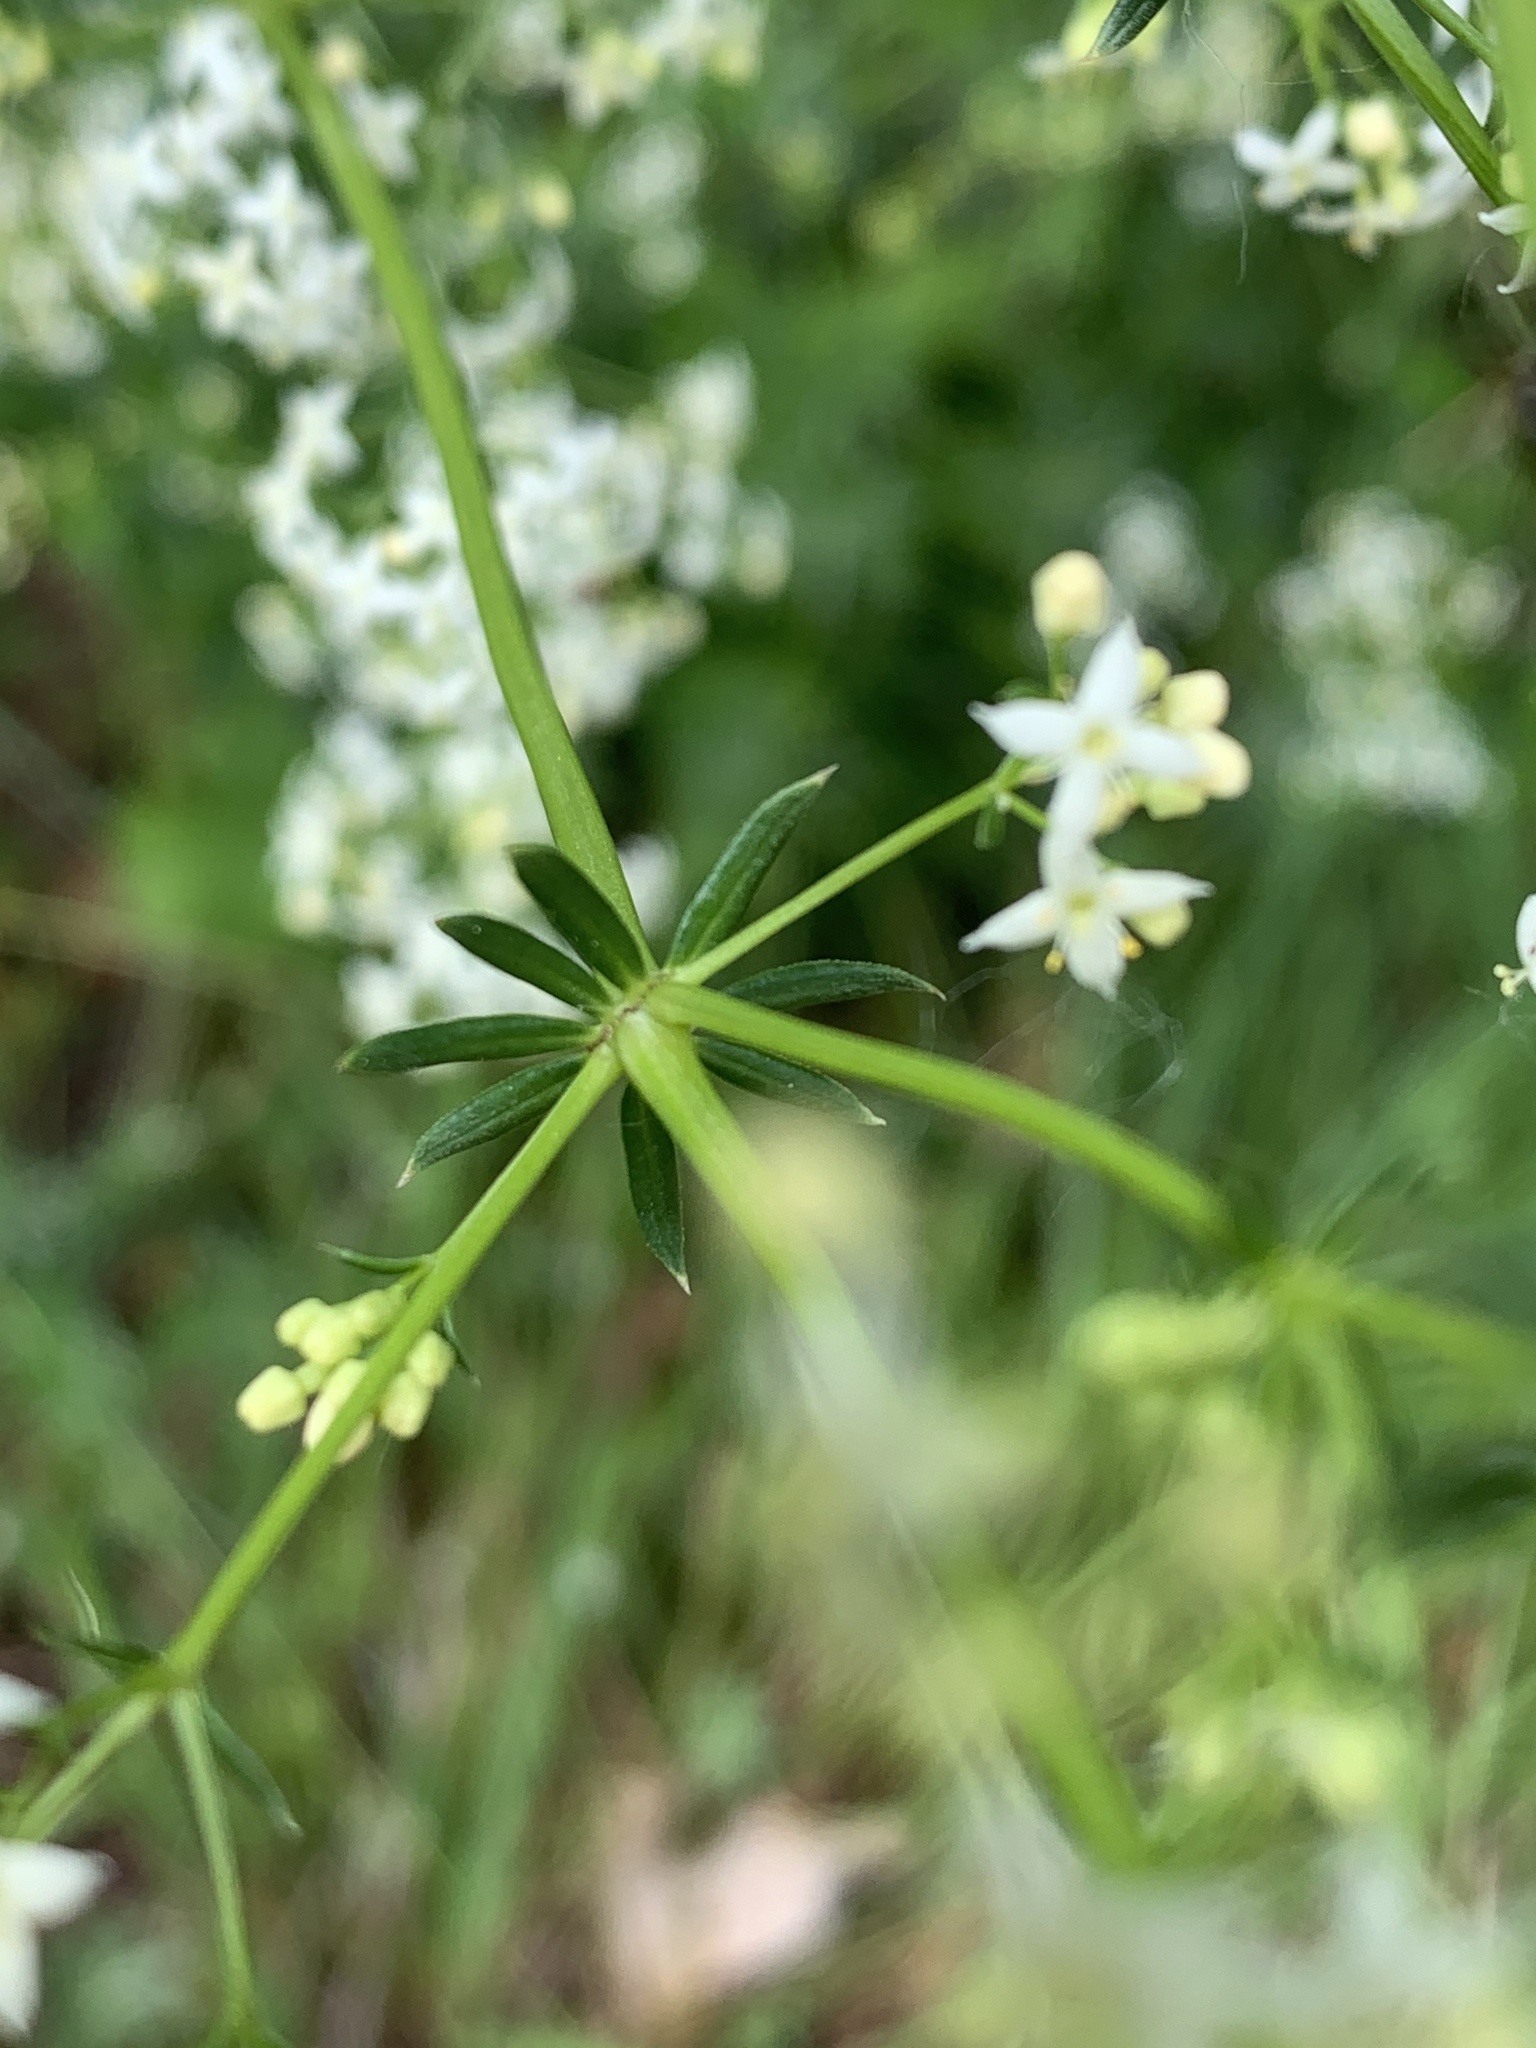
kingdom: Plantae
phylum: Tracheophyta
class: Magnoliopsida
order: Gentianales
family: Rubiaceae
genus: Galium
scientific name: Galium mollugo
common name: Hedge bedstraw
